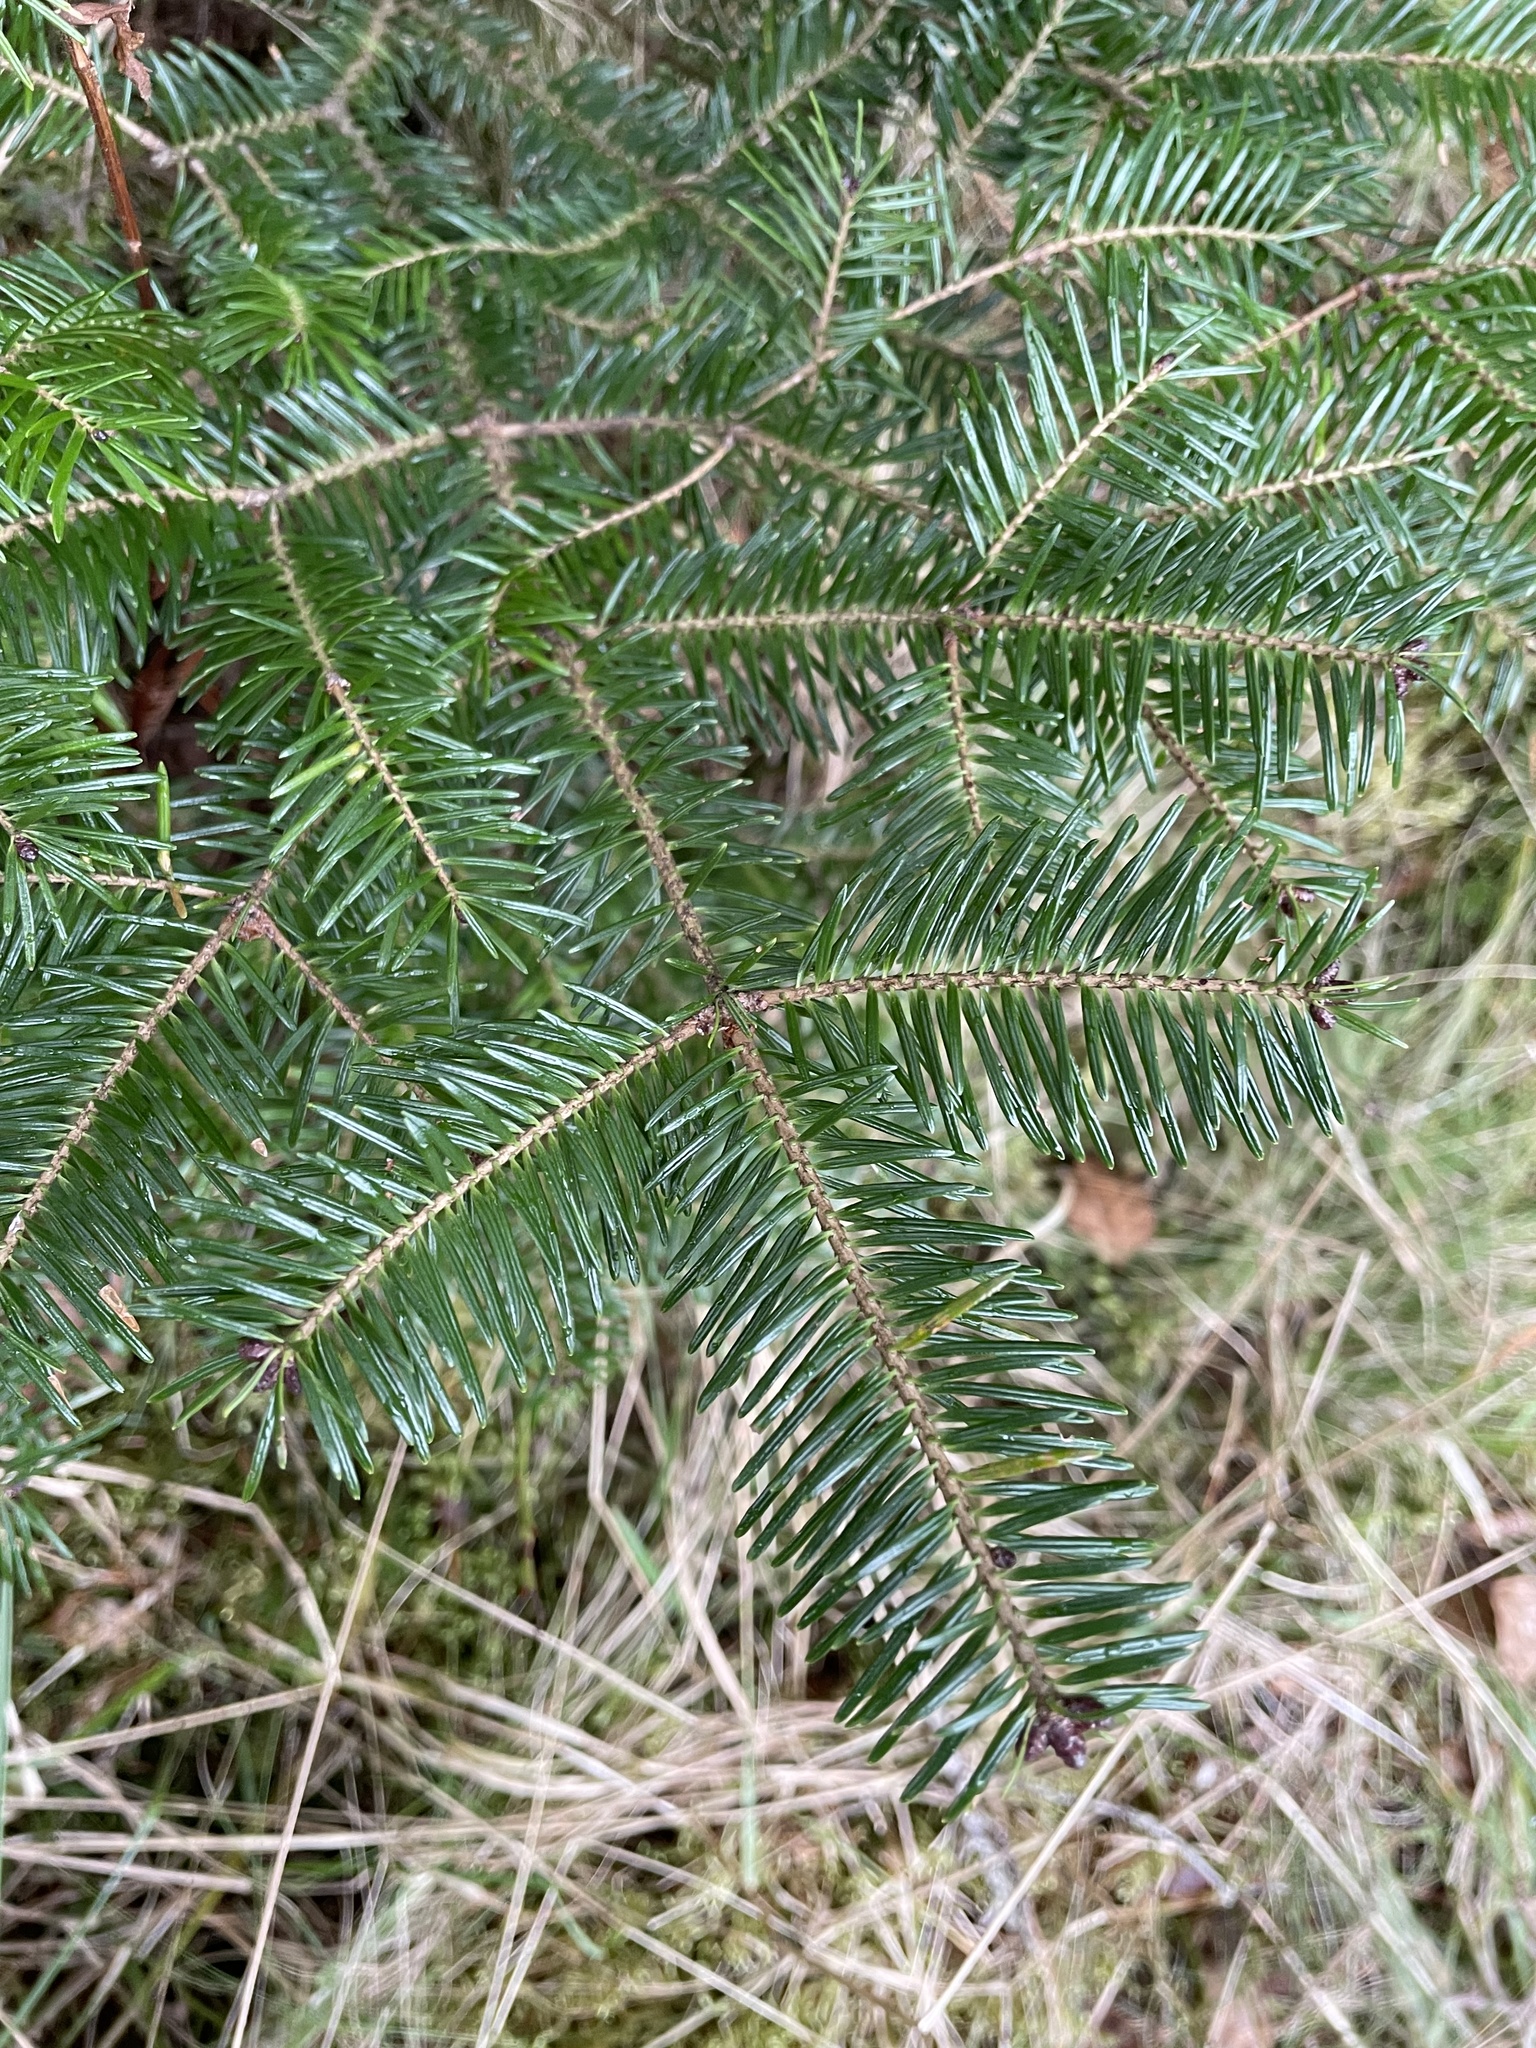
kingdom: Plantae
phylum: Tracheophyta
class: Pinopsida
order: Pinales
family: Pinaceae
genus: Abies
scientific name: Abies balsamea
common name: Balsam fir
